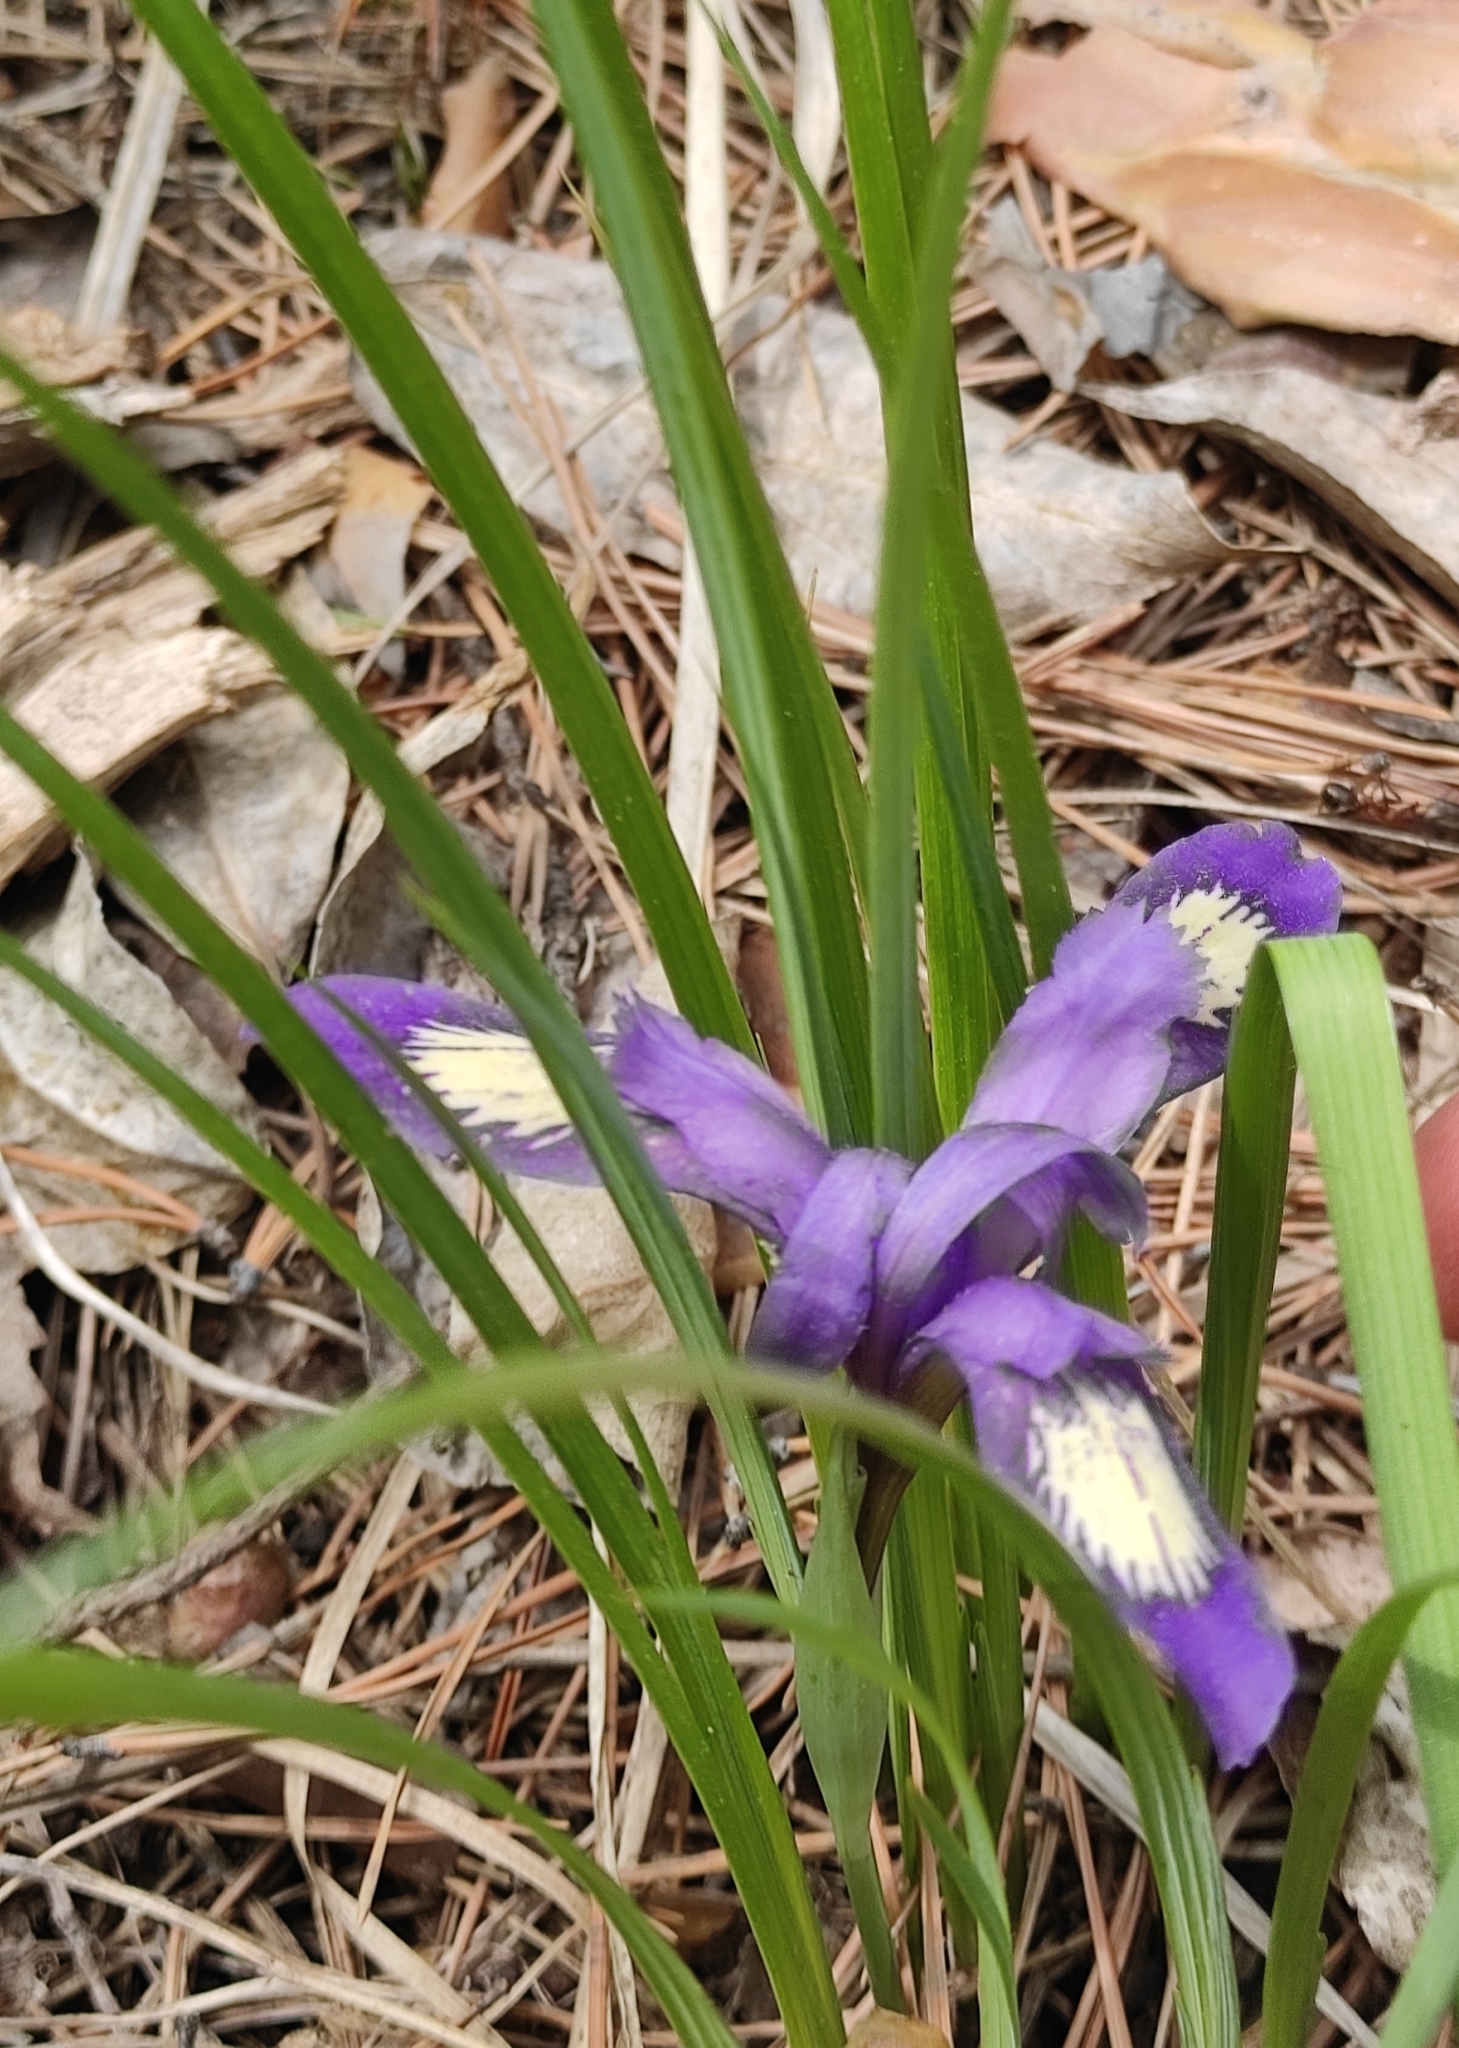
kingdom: Plantae
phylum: Tracheophyta
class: Liliopsida
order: Asparagales
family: Iridaceae
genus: Iris
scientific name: Iris ruthenica
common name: Purple-bract iris
